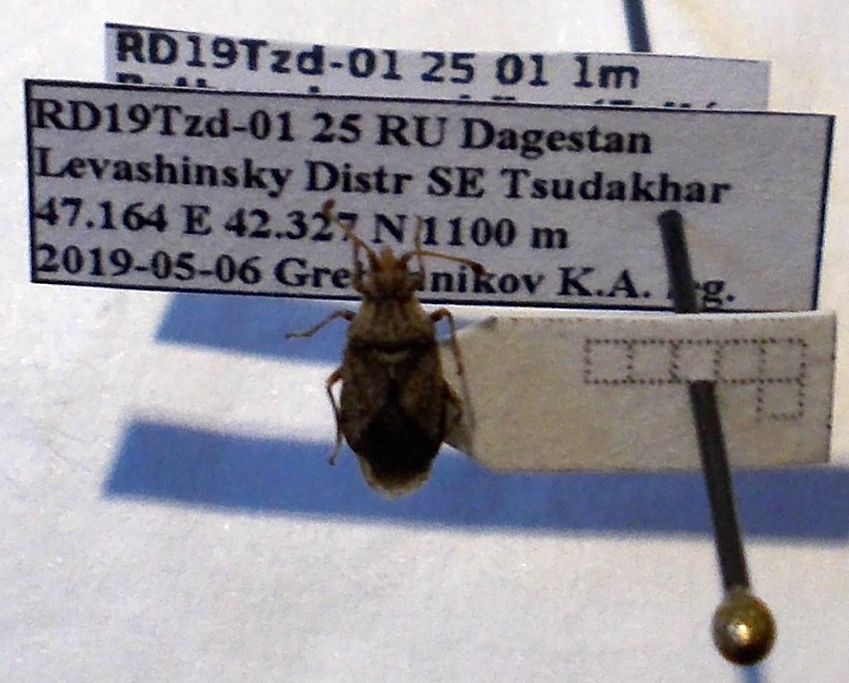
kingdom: Animalia
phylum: Arthropoda
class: Insecta
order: Hemiptera
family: Coreidae
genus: Bathysolen
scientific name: Bathysolen nubilus
